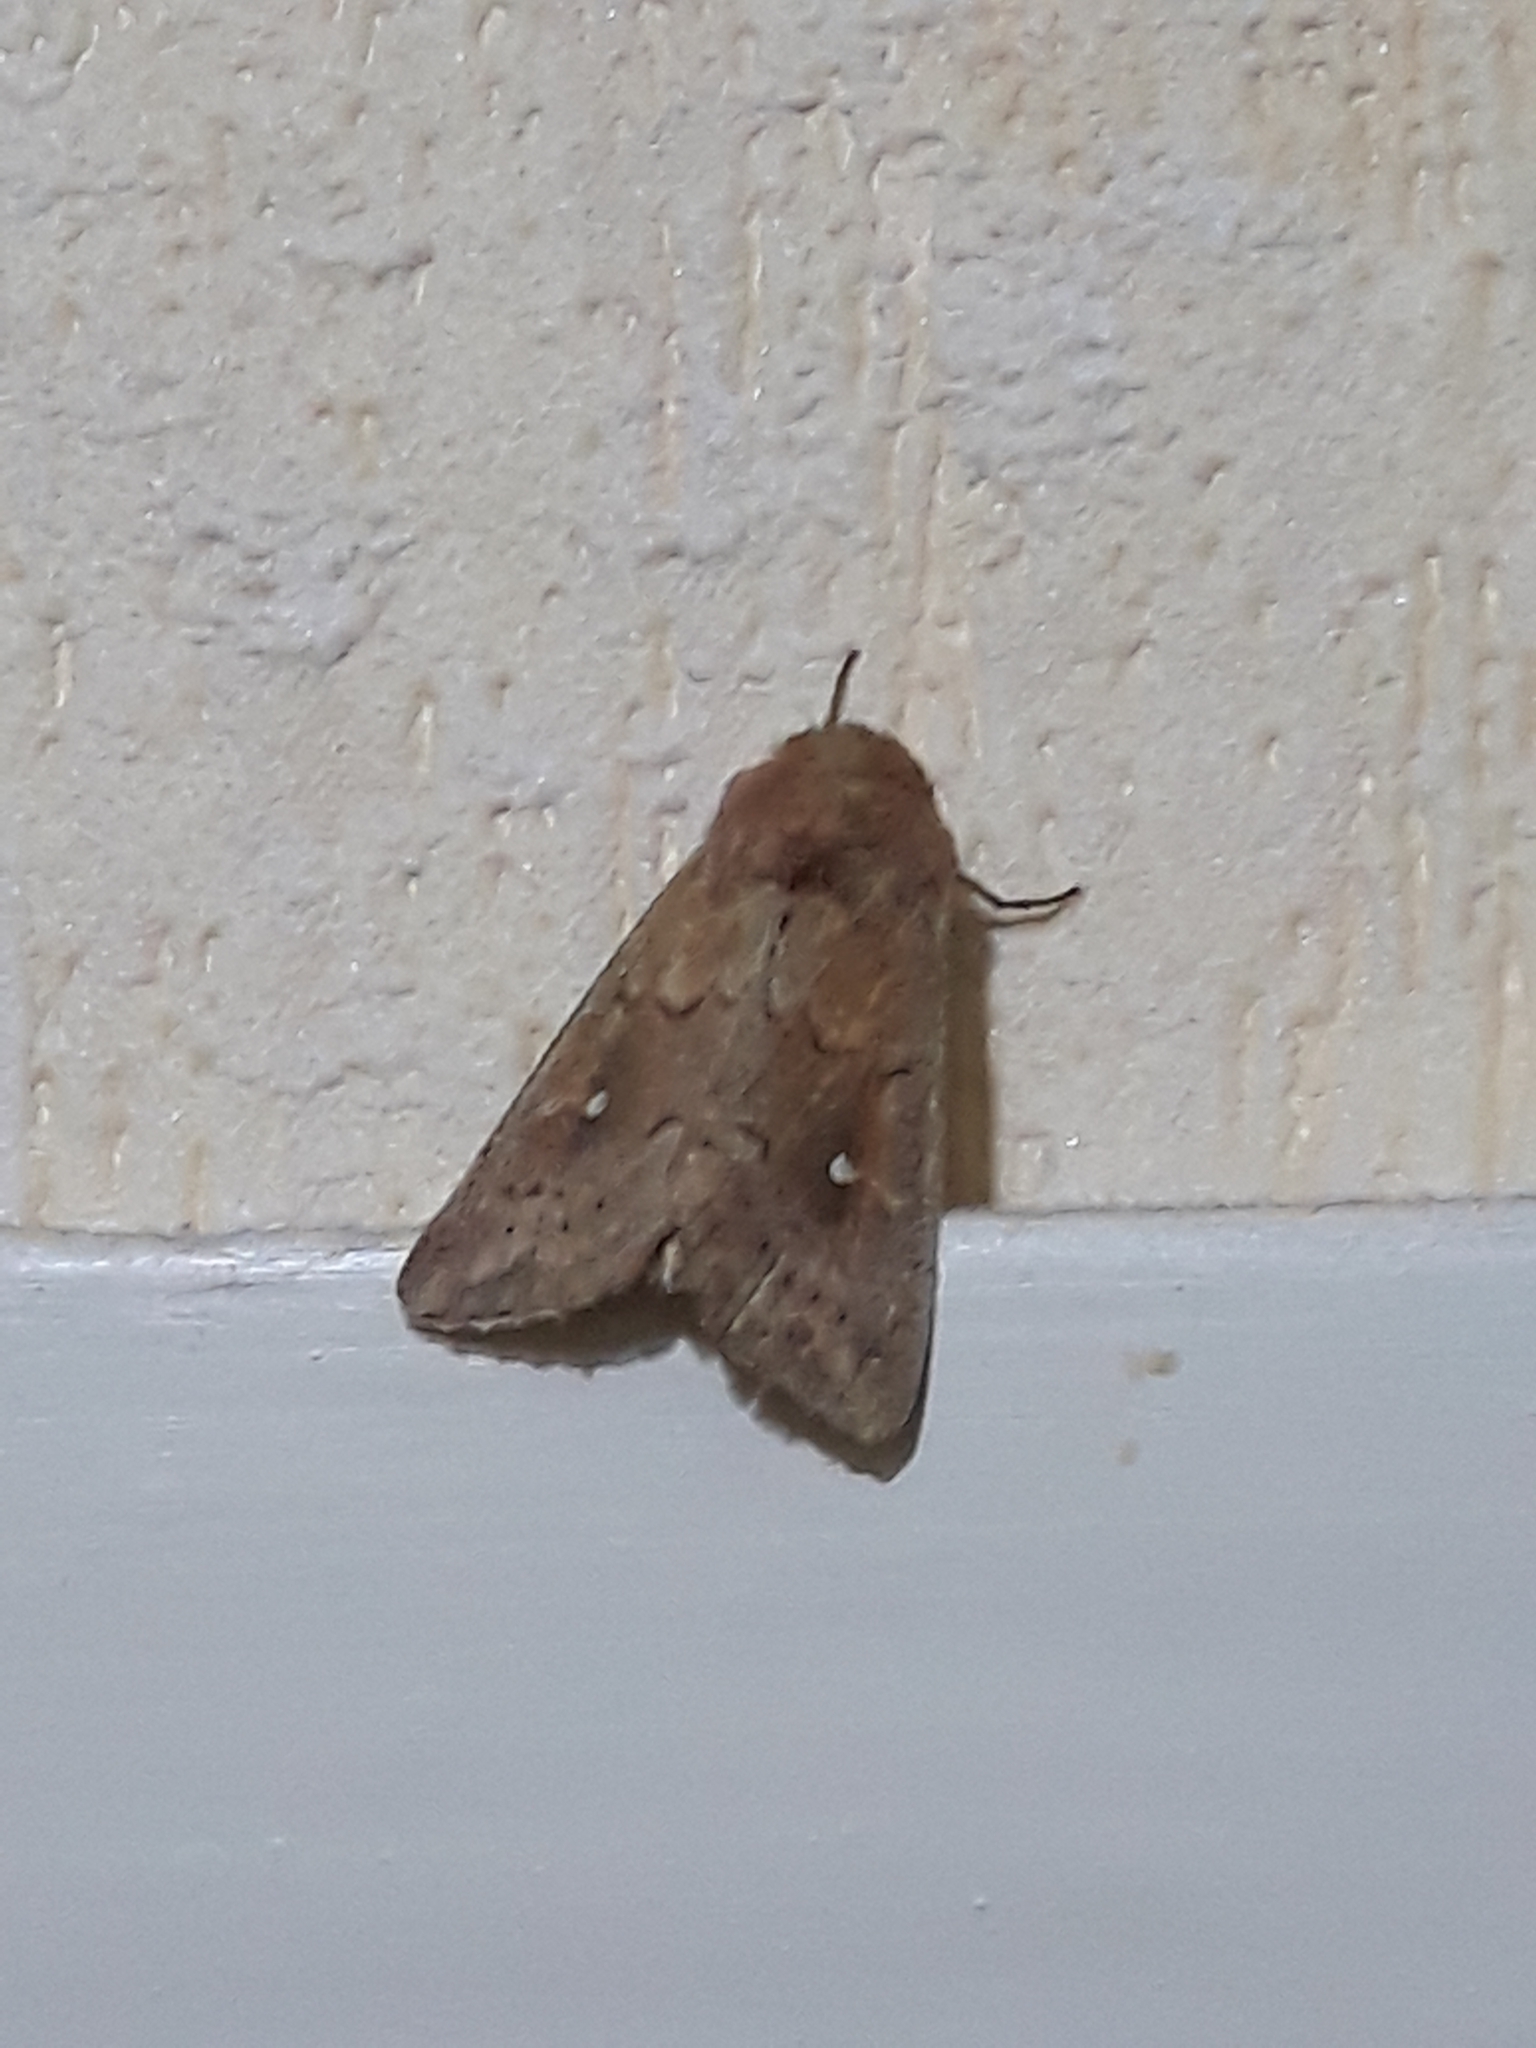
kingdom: Animalia
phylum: Arthropoda
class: Insecta
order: Lepidoptera
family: Noctuidae
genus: Mythimna
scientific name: Mythimna albipuncta
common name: White-point
